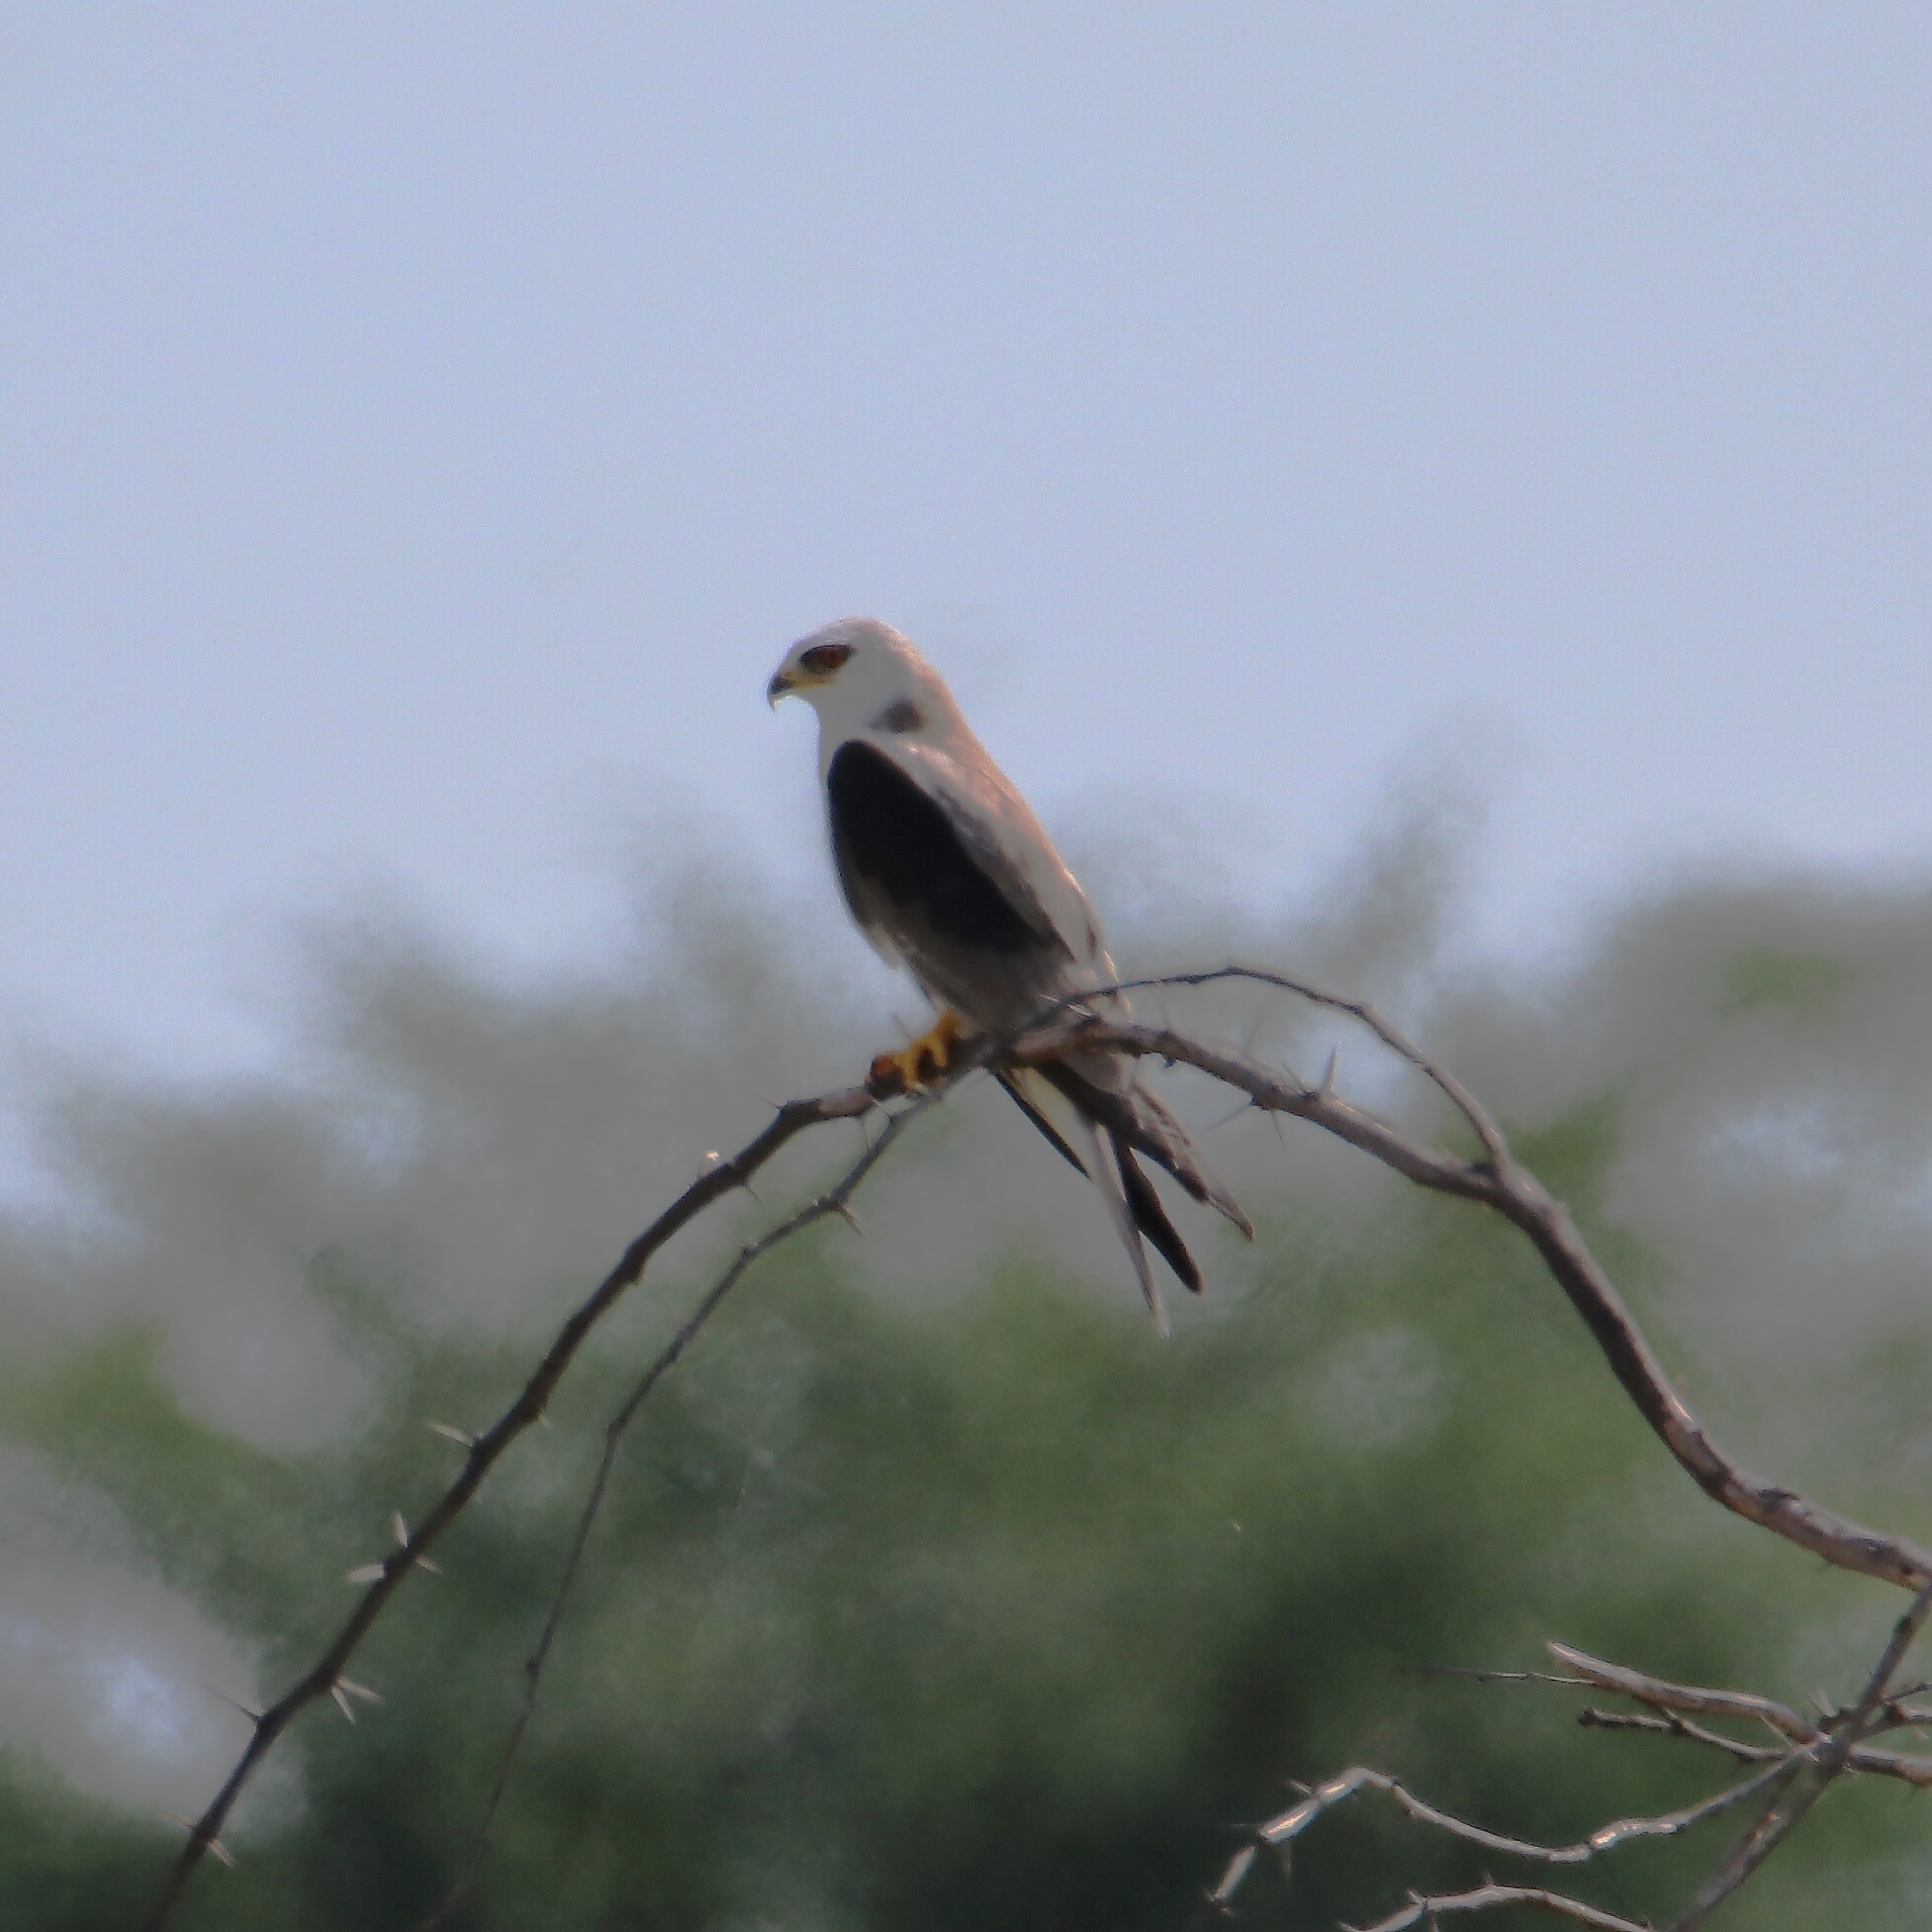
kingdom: Animalia
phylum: Chordata
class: Aves
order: Accipitriformes
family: Accipitridae
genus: Elanus
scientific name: Elanus leucurus
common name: White-tailed kite
